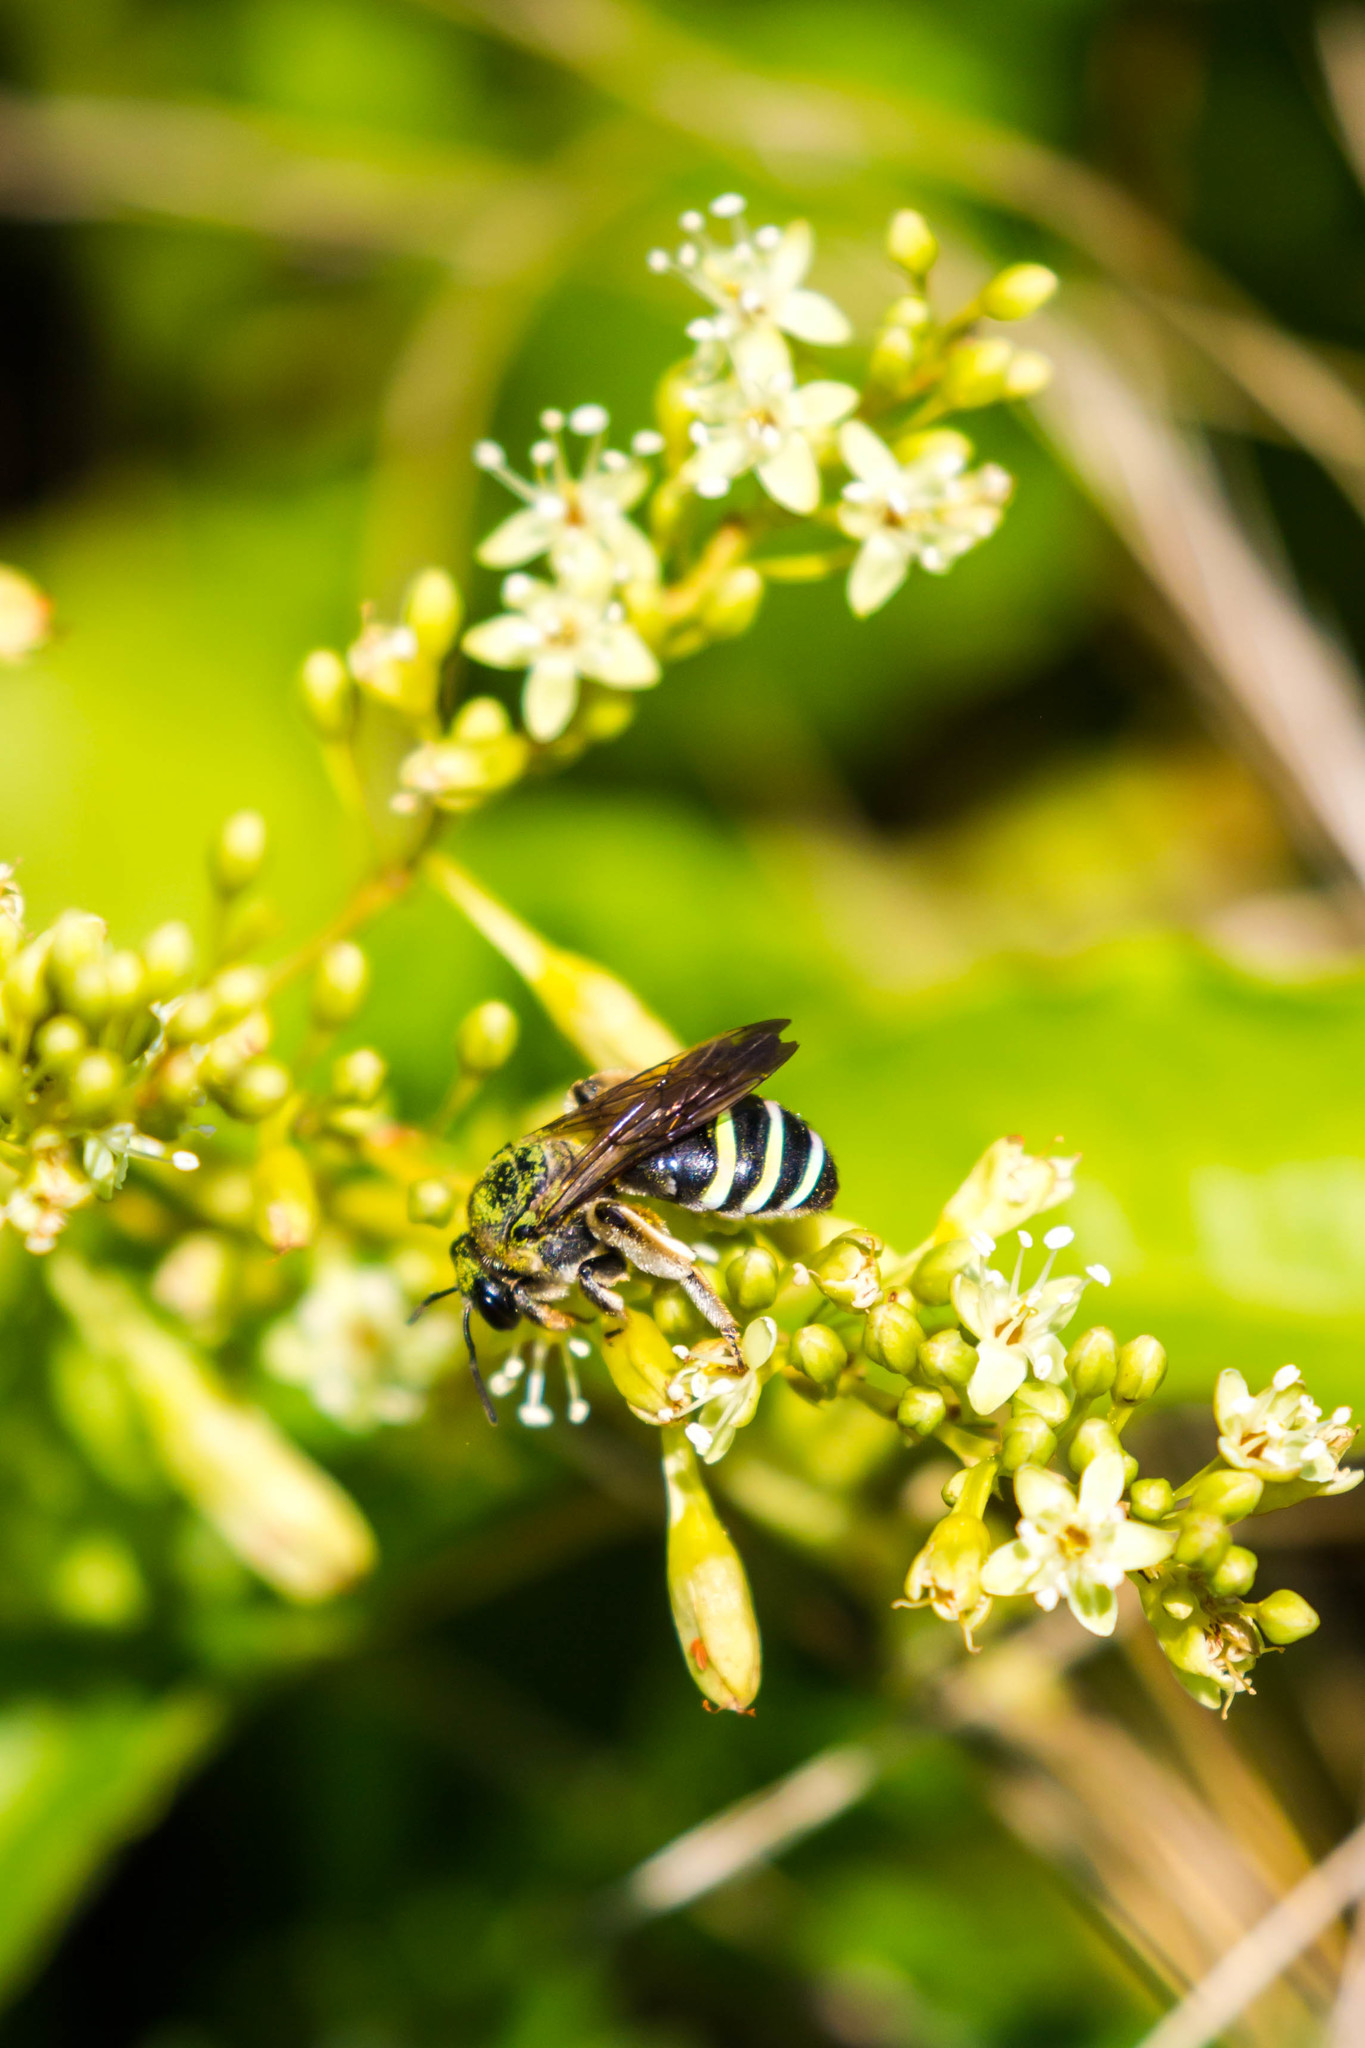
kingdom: Animalia
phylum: Arthropoda
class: Insecta
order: Hymenoptera
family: Halictidae
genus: Nomia
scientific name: Nomia nortoni
